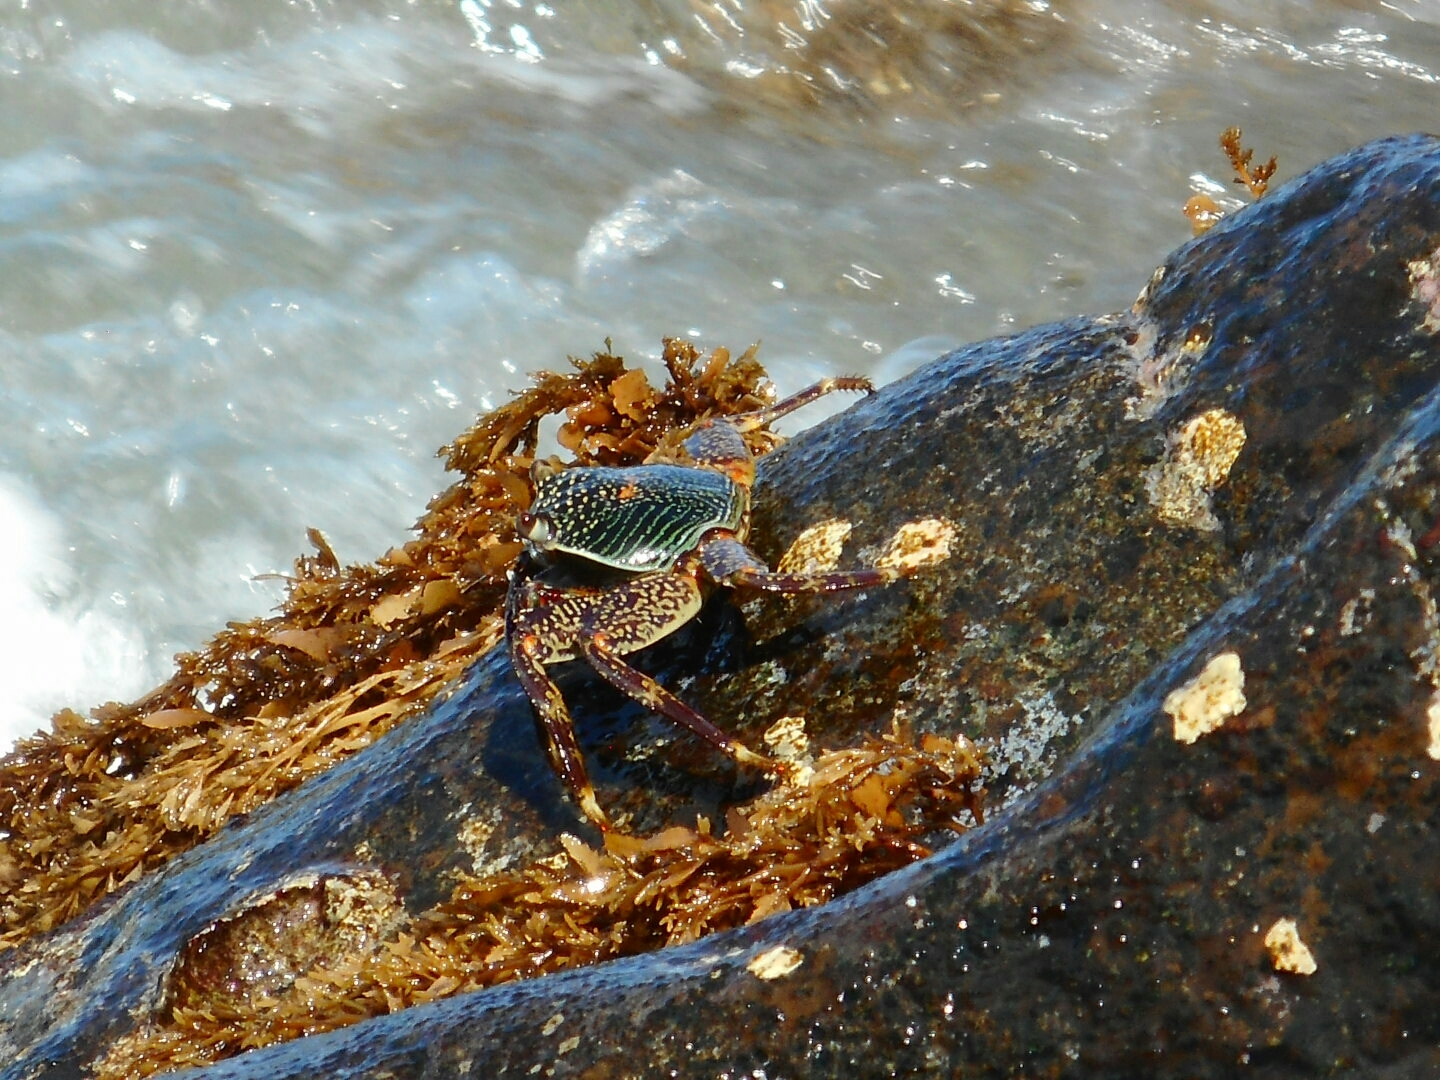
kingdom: Animalia
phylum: Arthropoda
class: Malacostraca
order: Decapoda
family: Grapsidae
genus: Grapsus
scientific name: Grapsus albolineatus
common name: Mottled lightfoot crab
